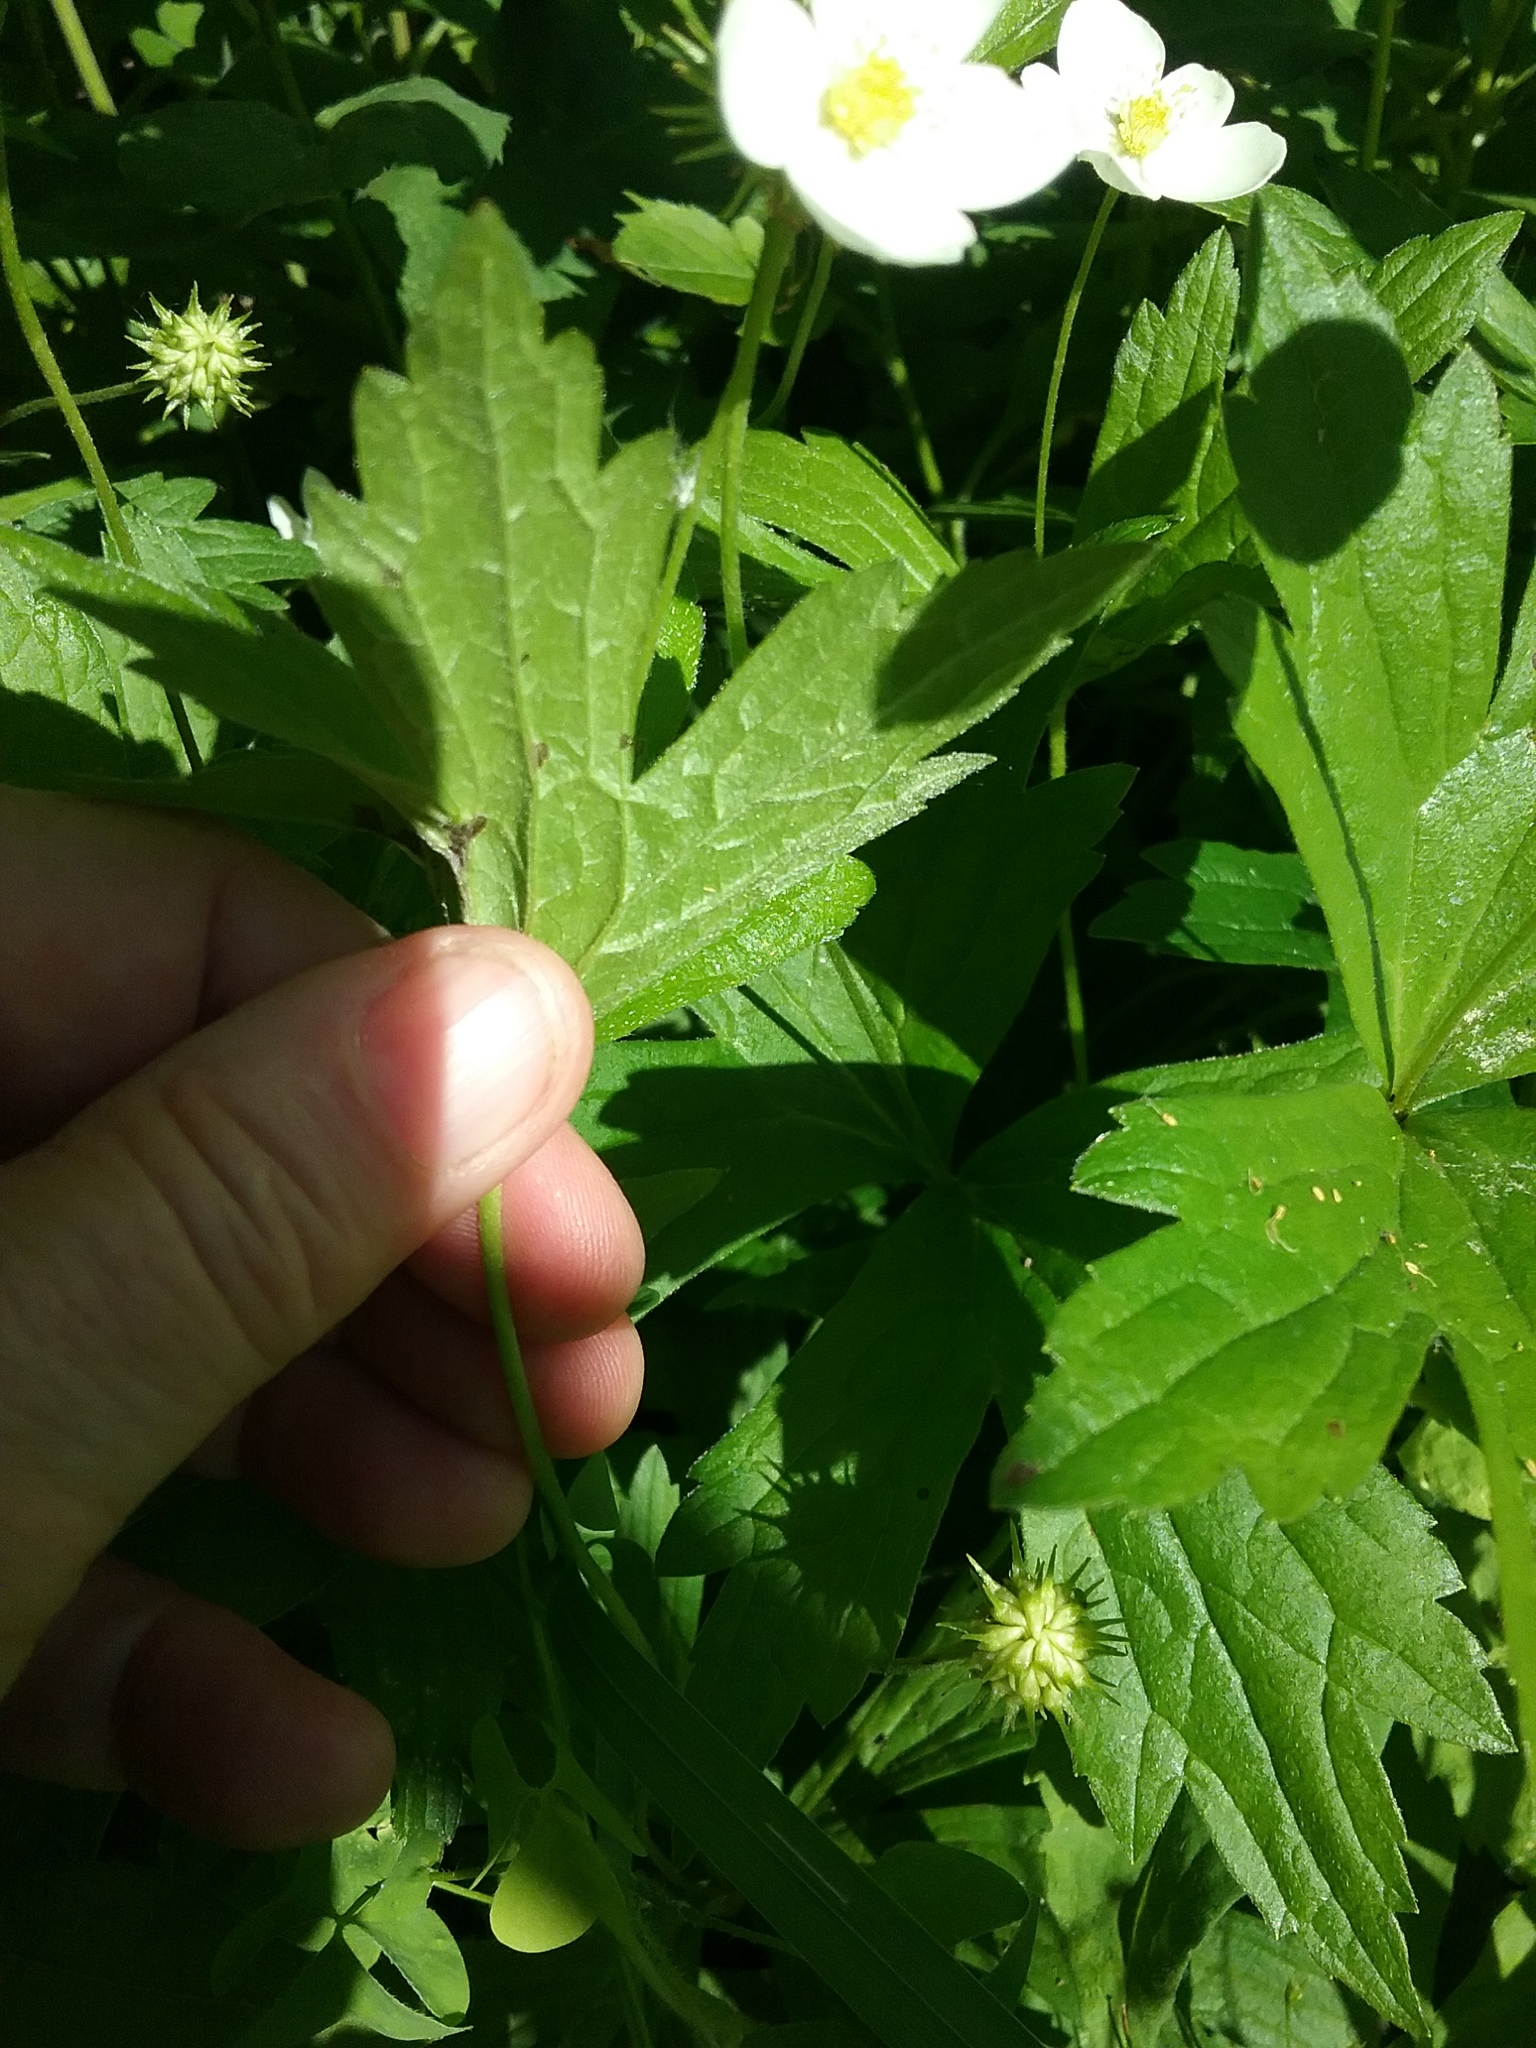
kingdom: Plantae
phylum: Tracheophyta
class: Magnoliopsida
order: Ranunculales
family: Ranunculaceae
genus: Anemonastrum
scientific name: Anemonastrum canadense
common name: Canada anemone
